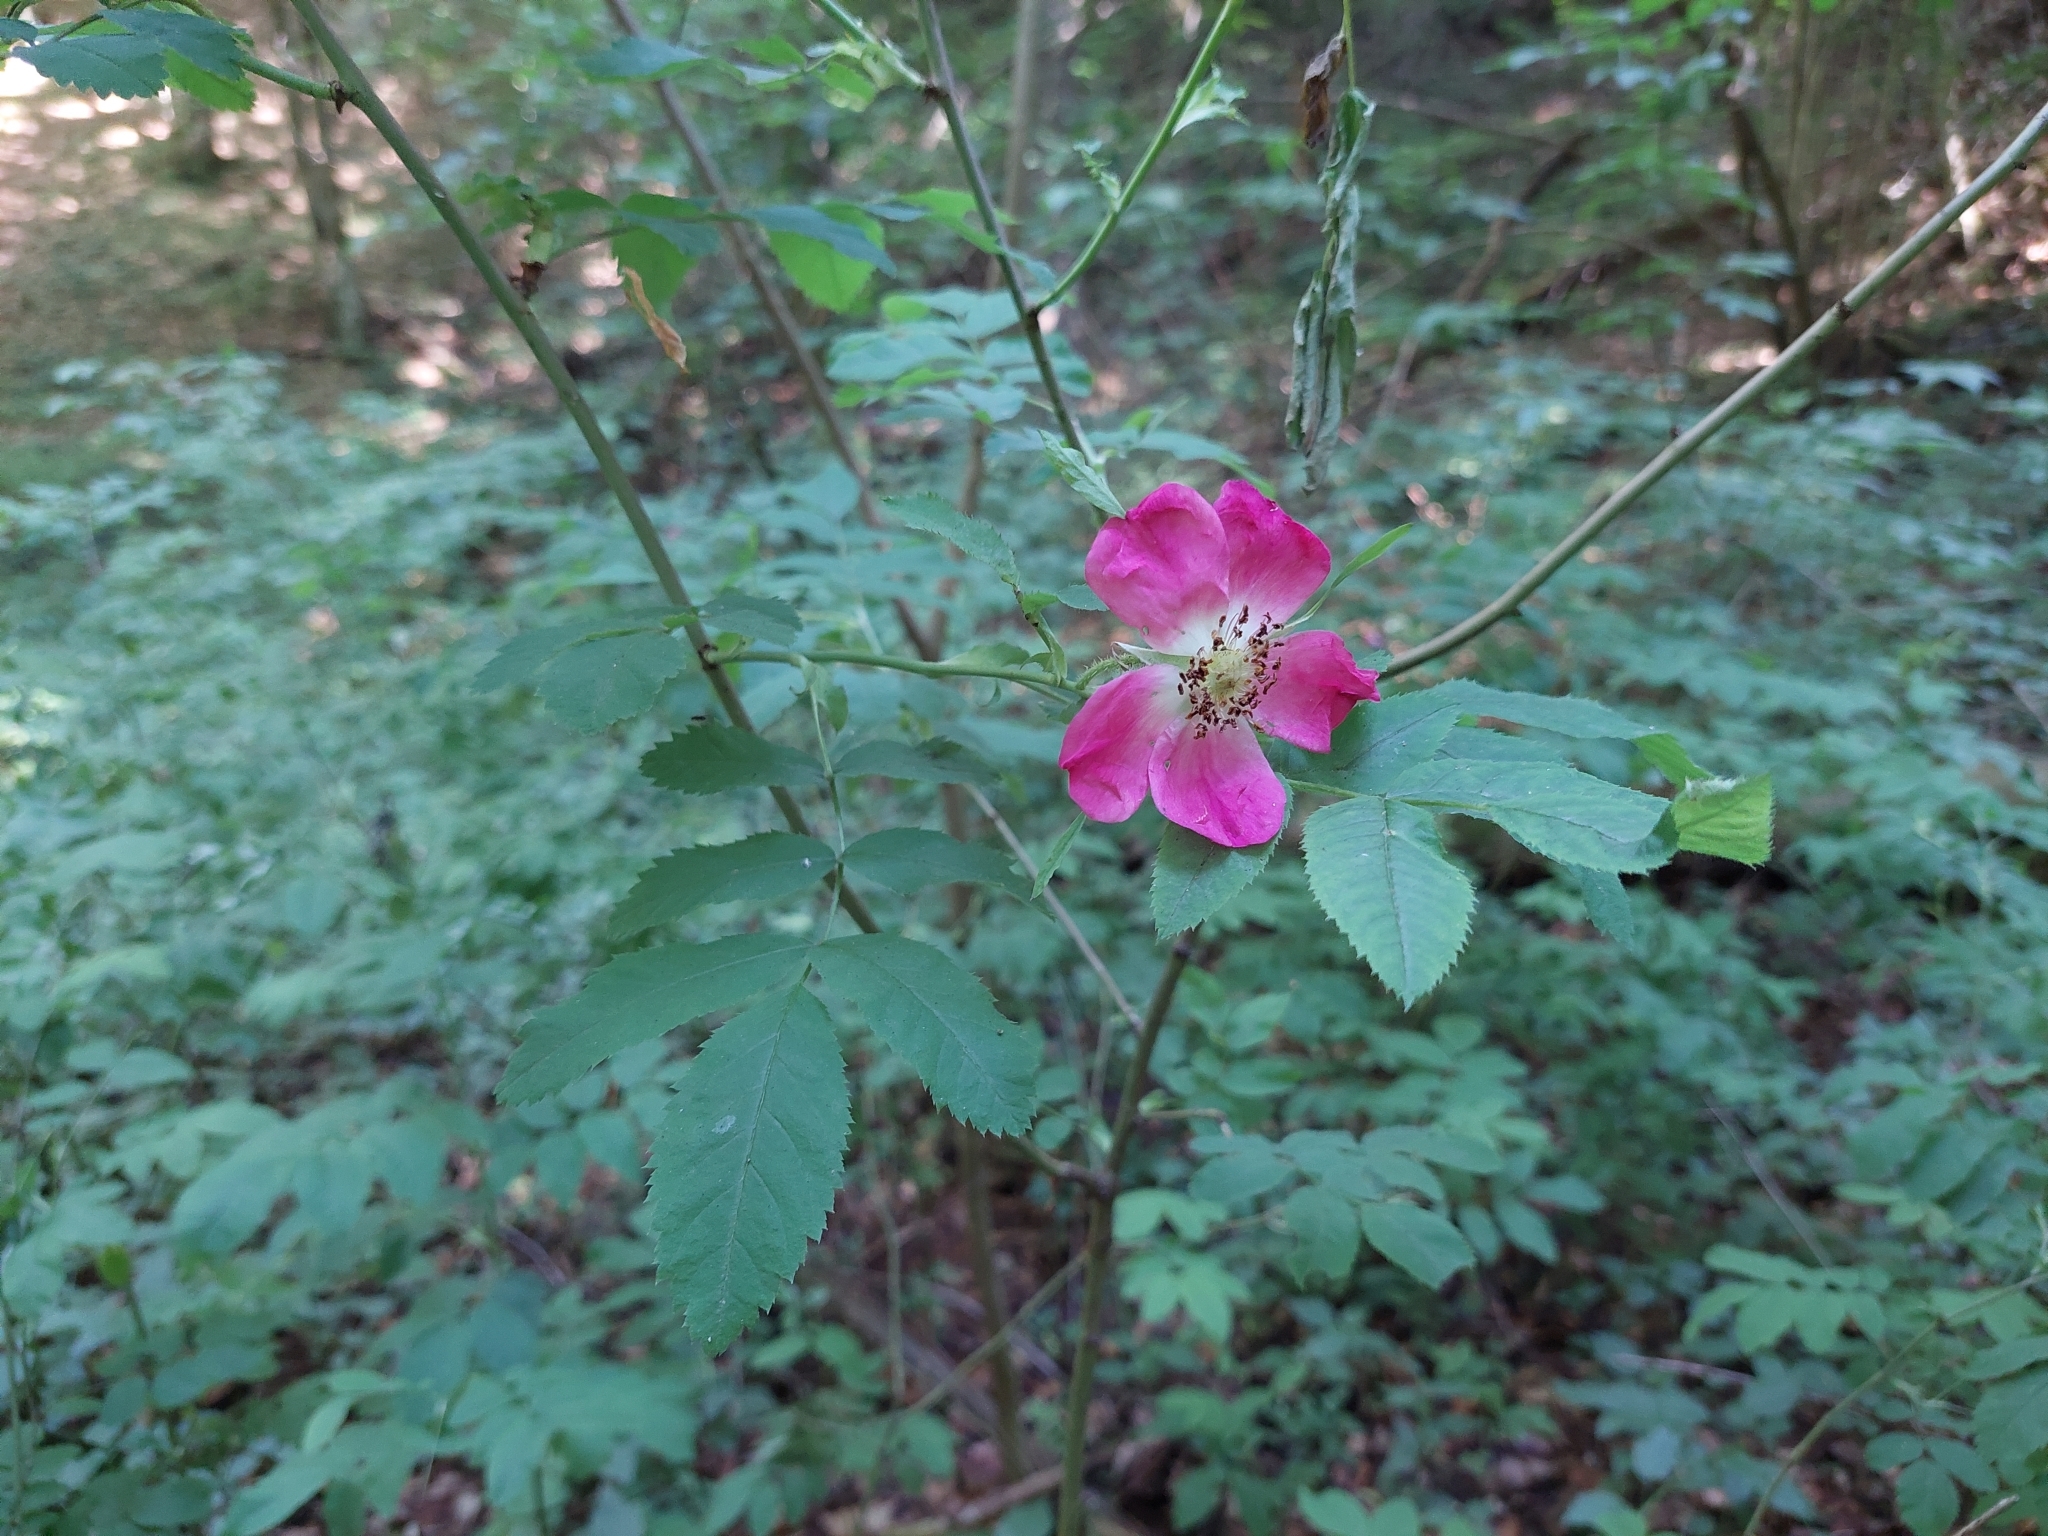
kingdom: Plantae
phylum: Tracheophyta
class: Magnoliopsida
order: Rosales
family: Rosaceae
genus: Rosa
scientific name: Rosa pendulina
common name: Alpine rose
